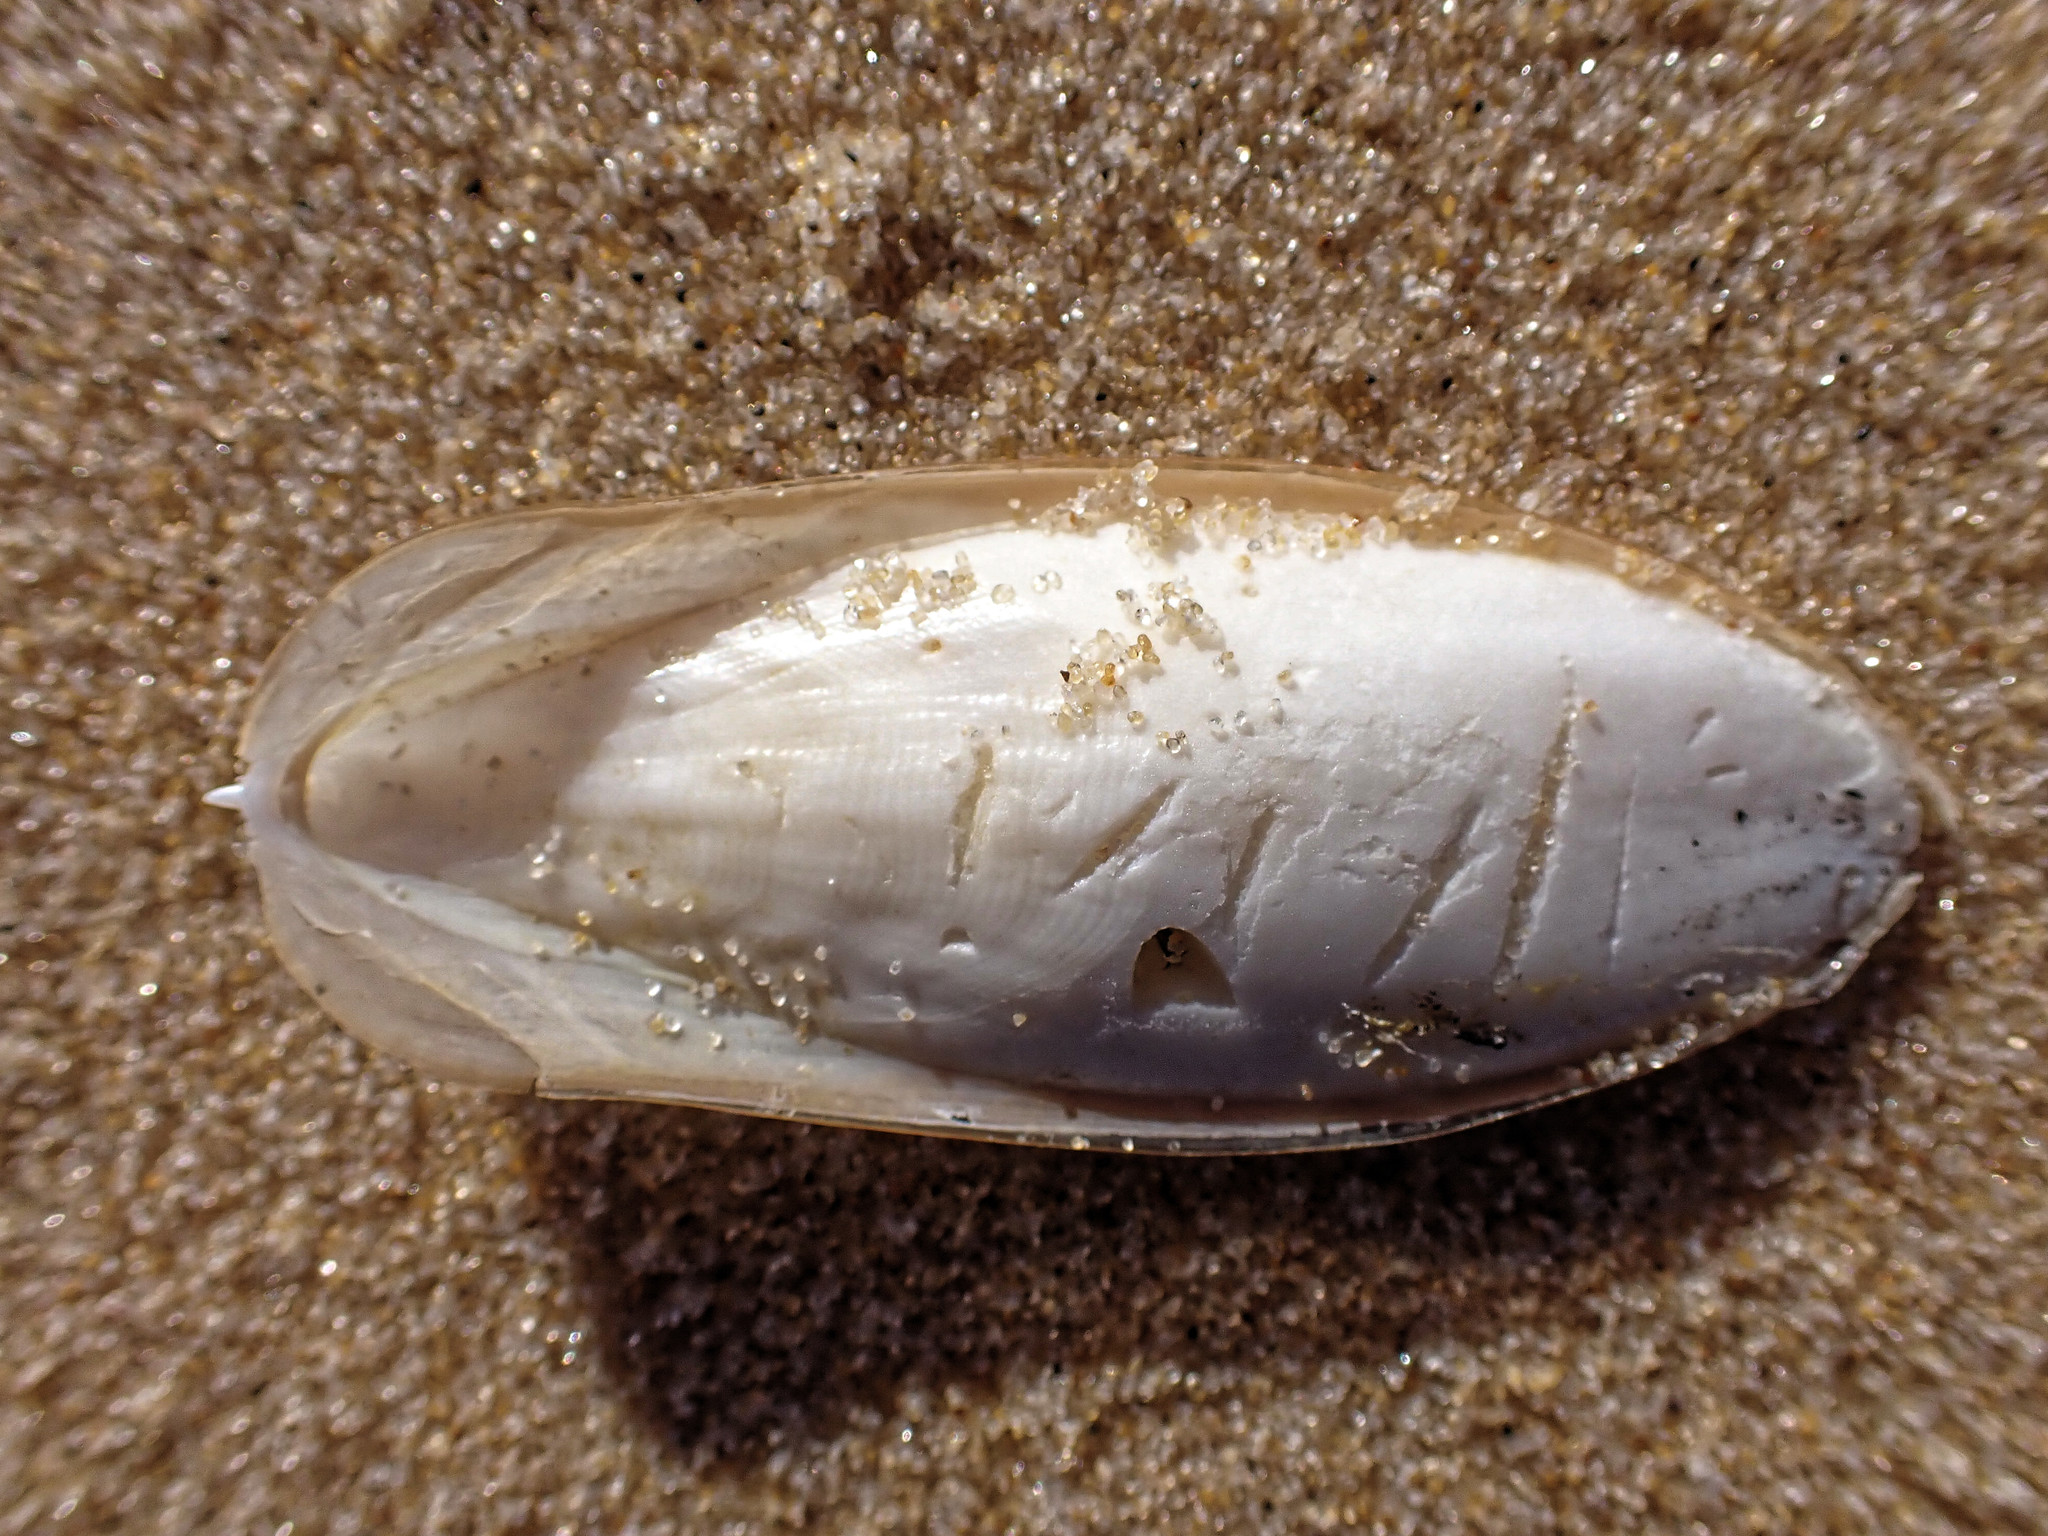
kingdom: Animalia
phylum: Mollusca
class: Cephalopoda
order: Sepiida
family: Sepiidae
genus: Sepia
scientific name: Sepia officinalis
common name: Common cuttlefish
